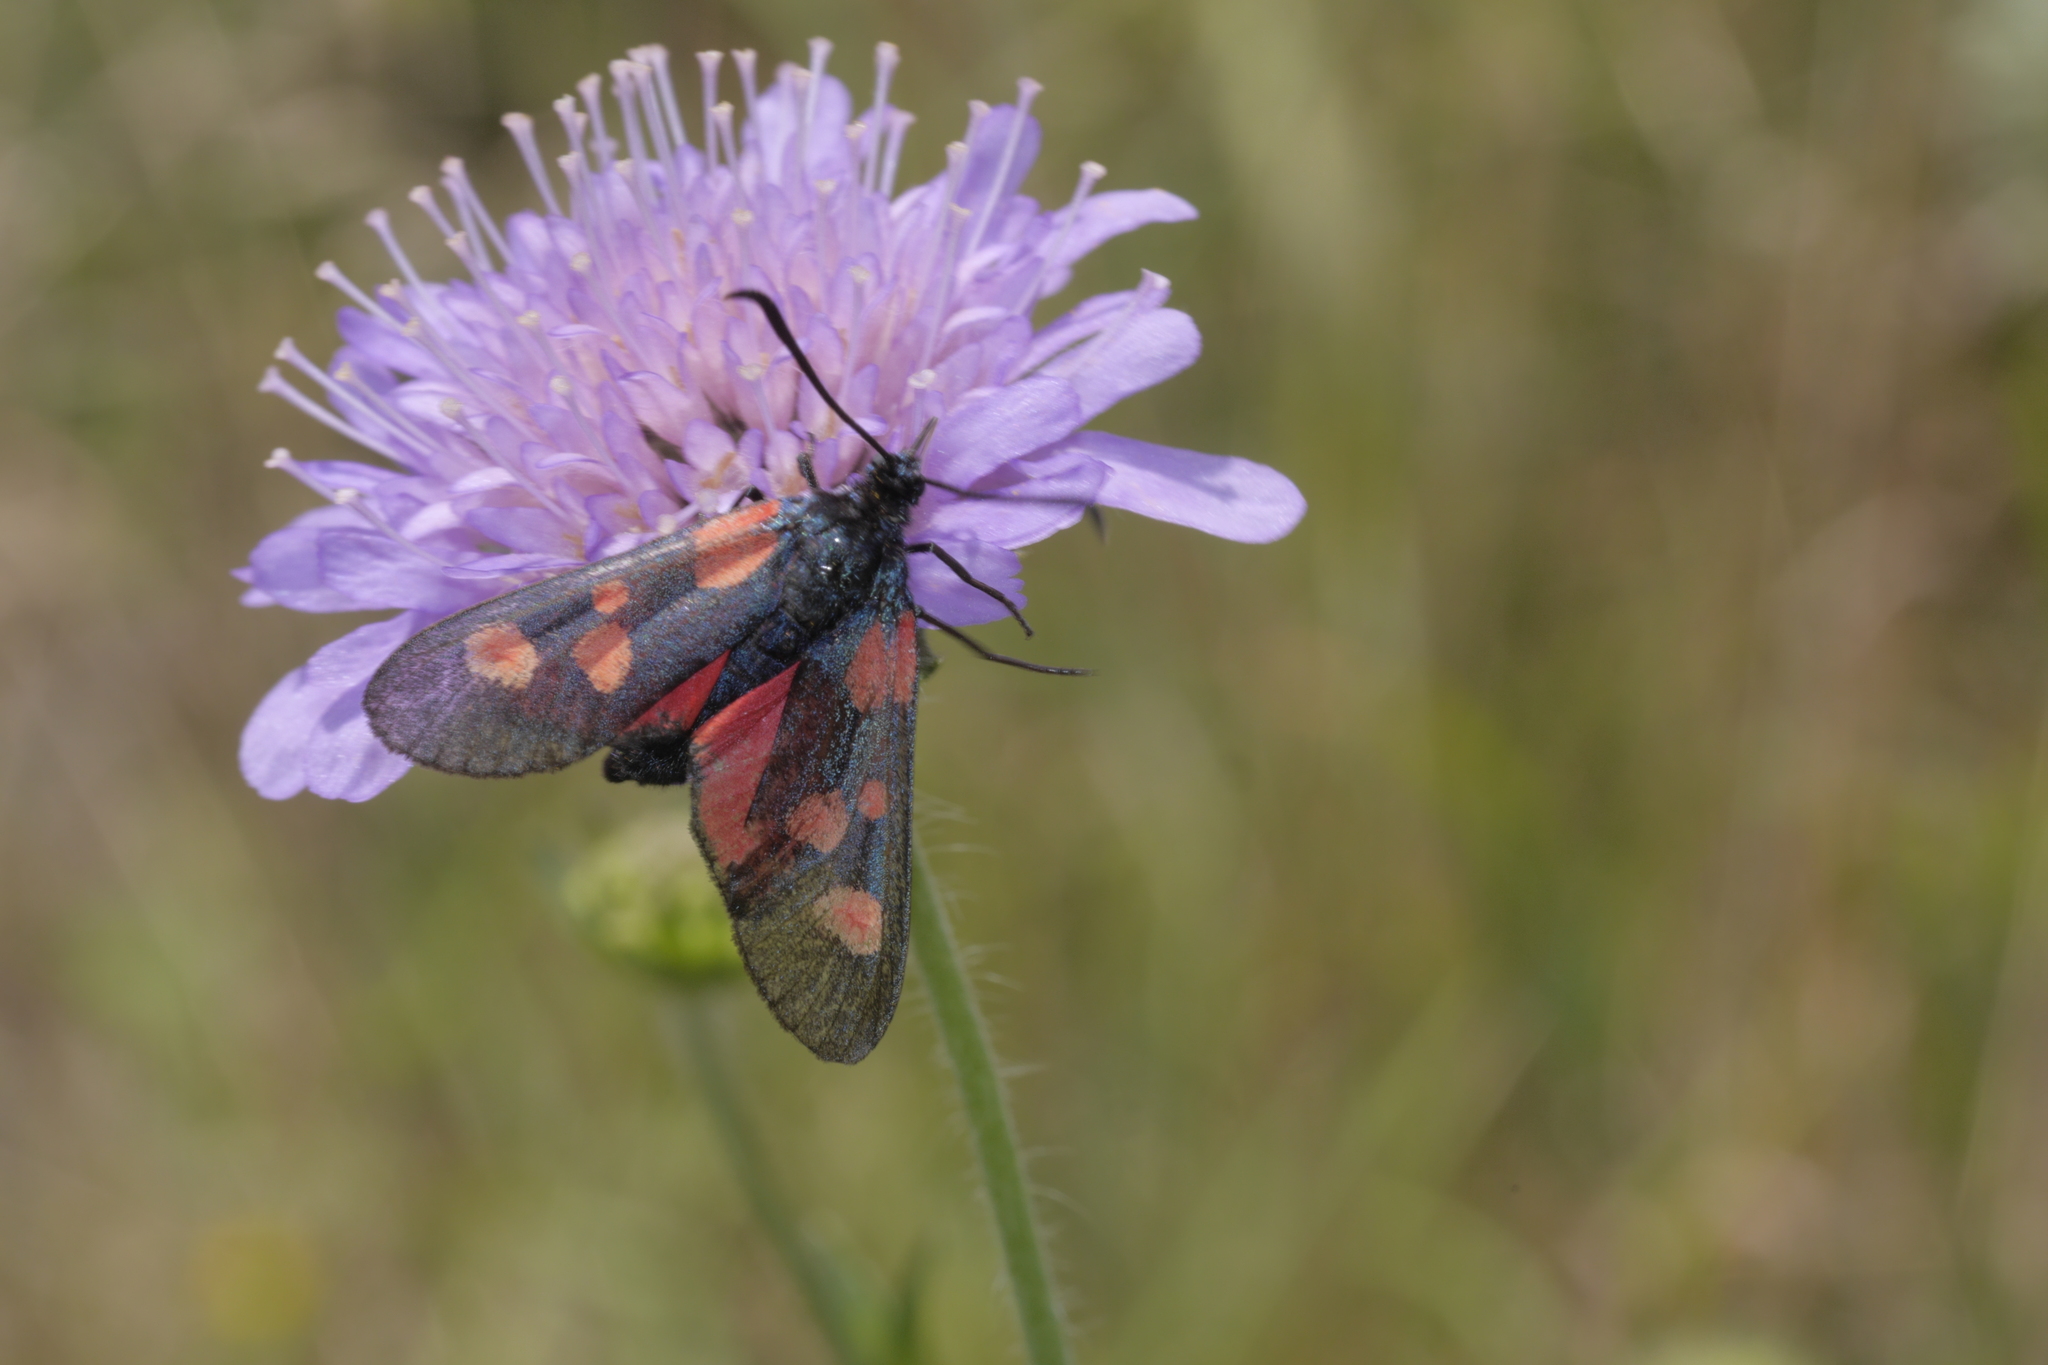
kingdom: Animalia
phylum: Arthropoda
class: Insecta
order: Lepidoptera
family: Zygaenidae
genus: Zygaena
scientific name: Zygaena viciae
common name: New forest burnet
